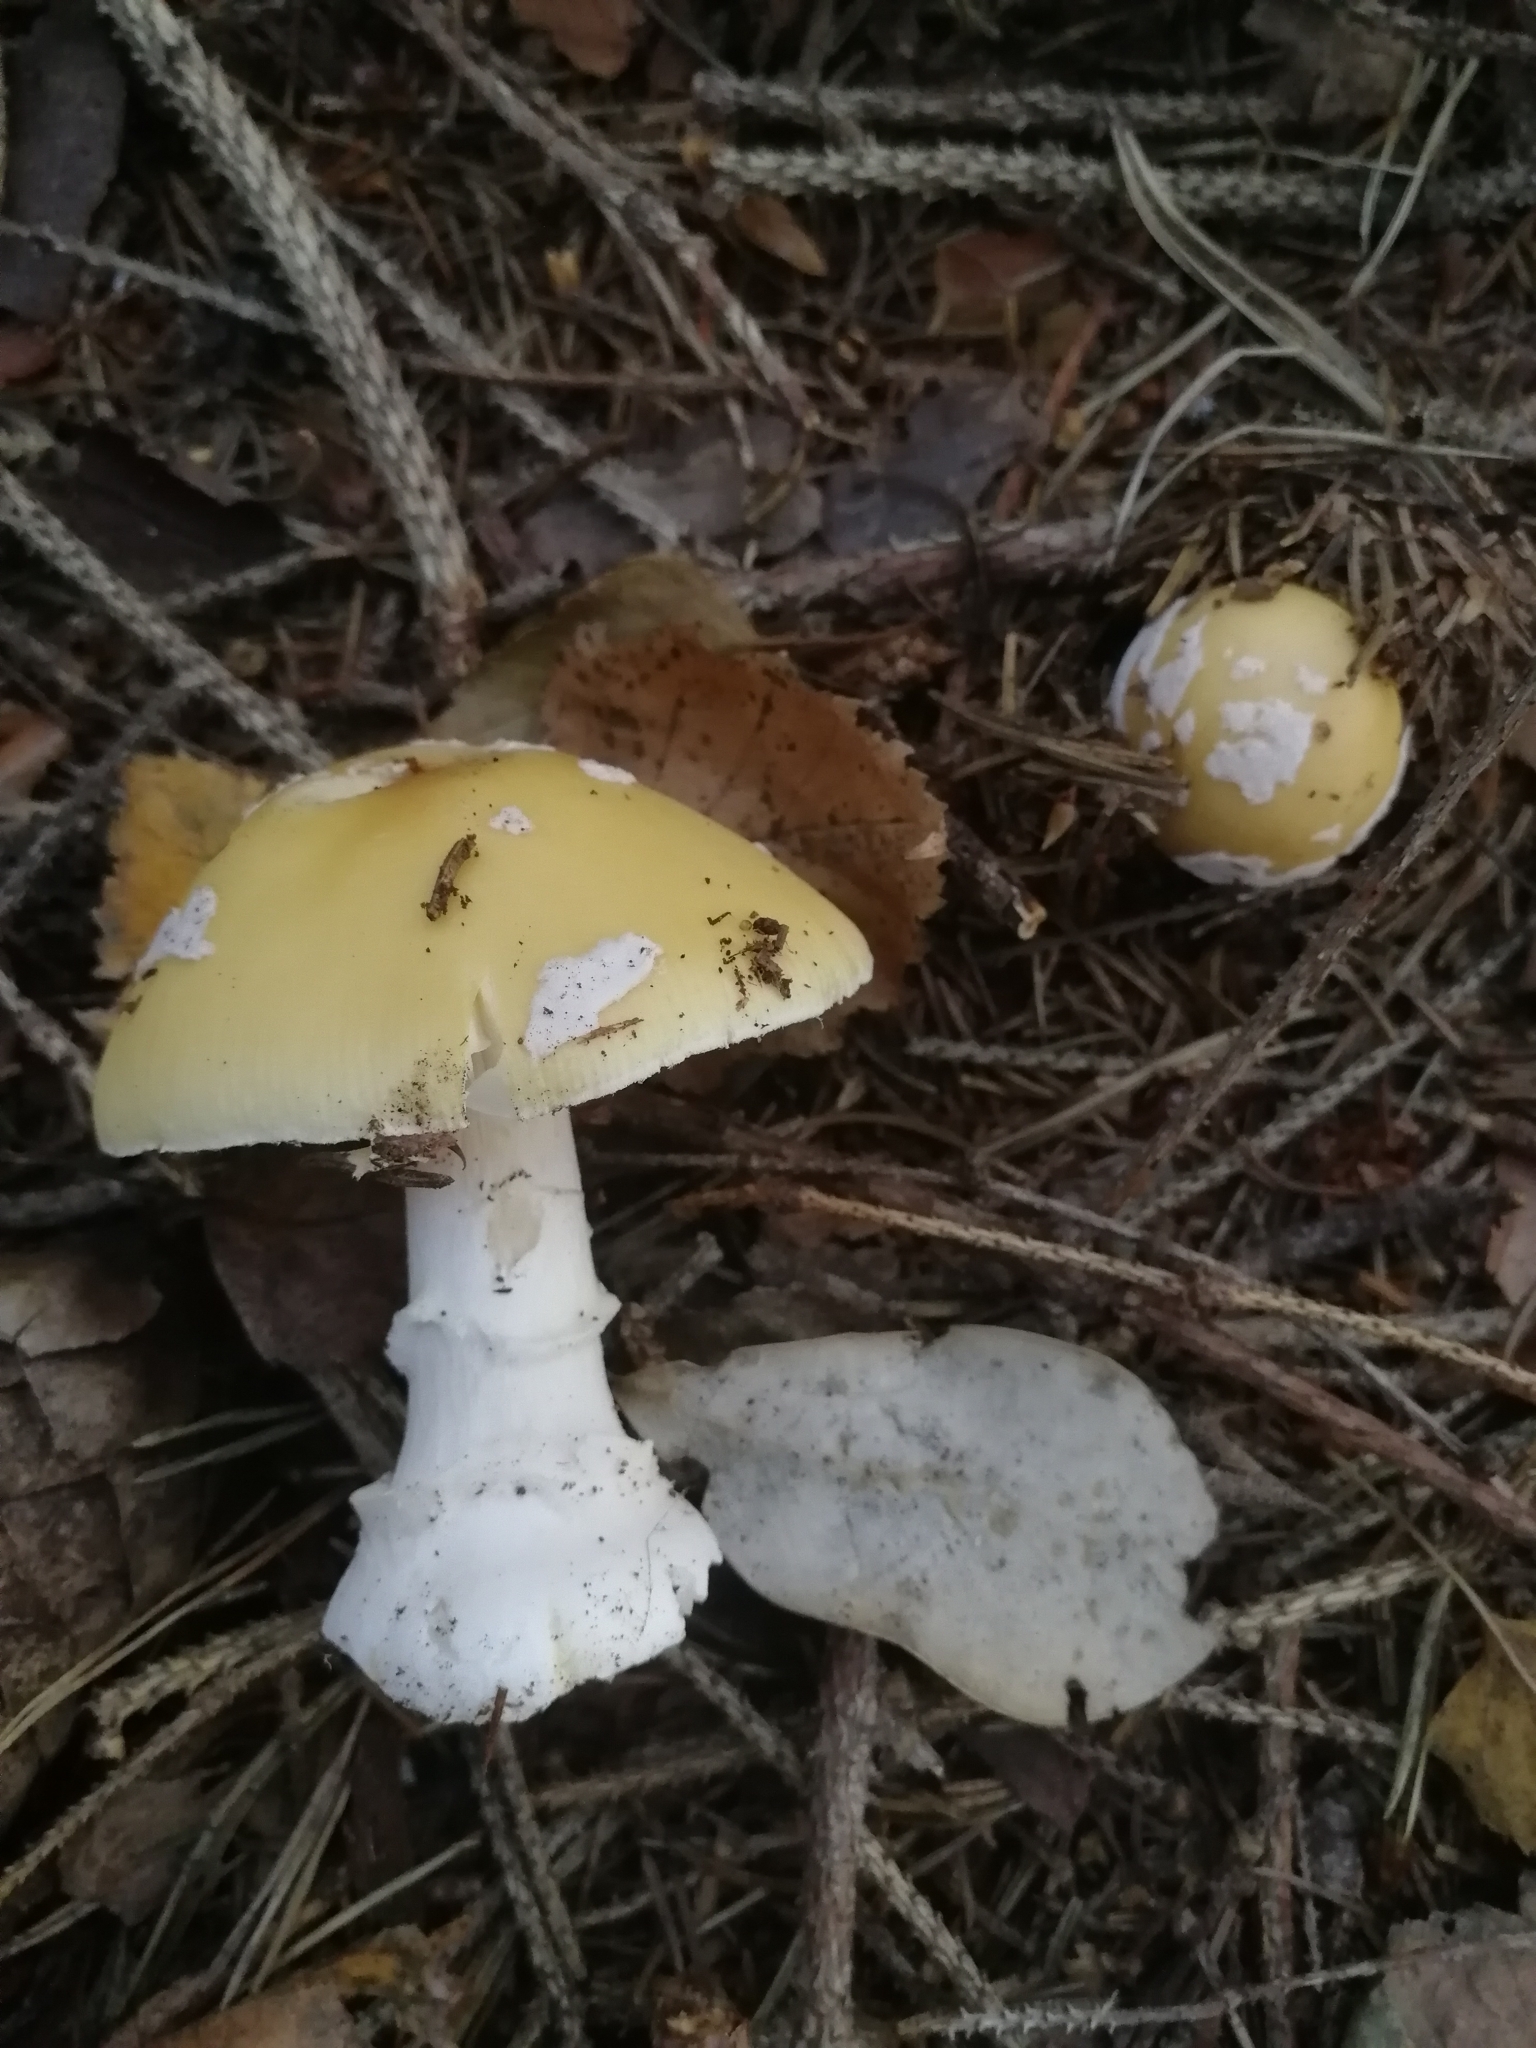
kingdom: Fungi
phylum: Basidiomycota
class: Agaricomycetes
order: Agaricales
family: Amanitaceae
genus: Amanita
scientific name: Amanita gemmata
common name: Jewelled amanita
